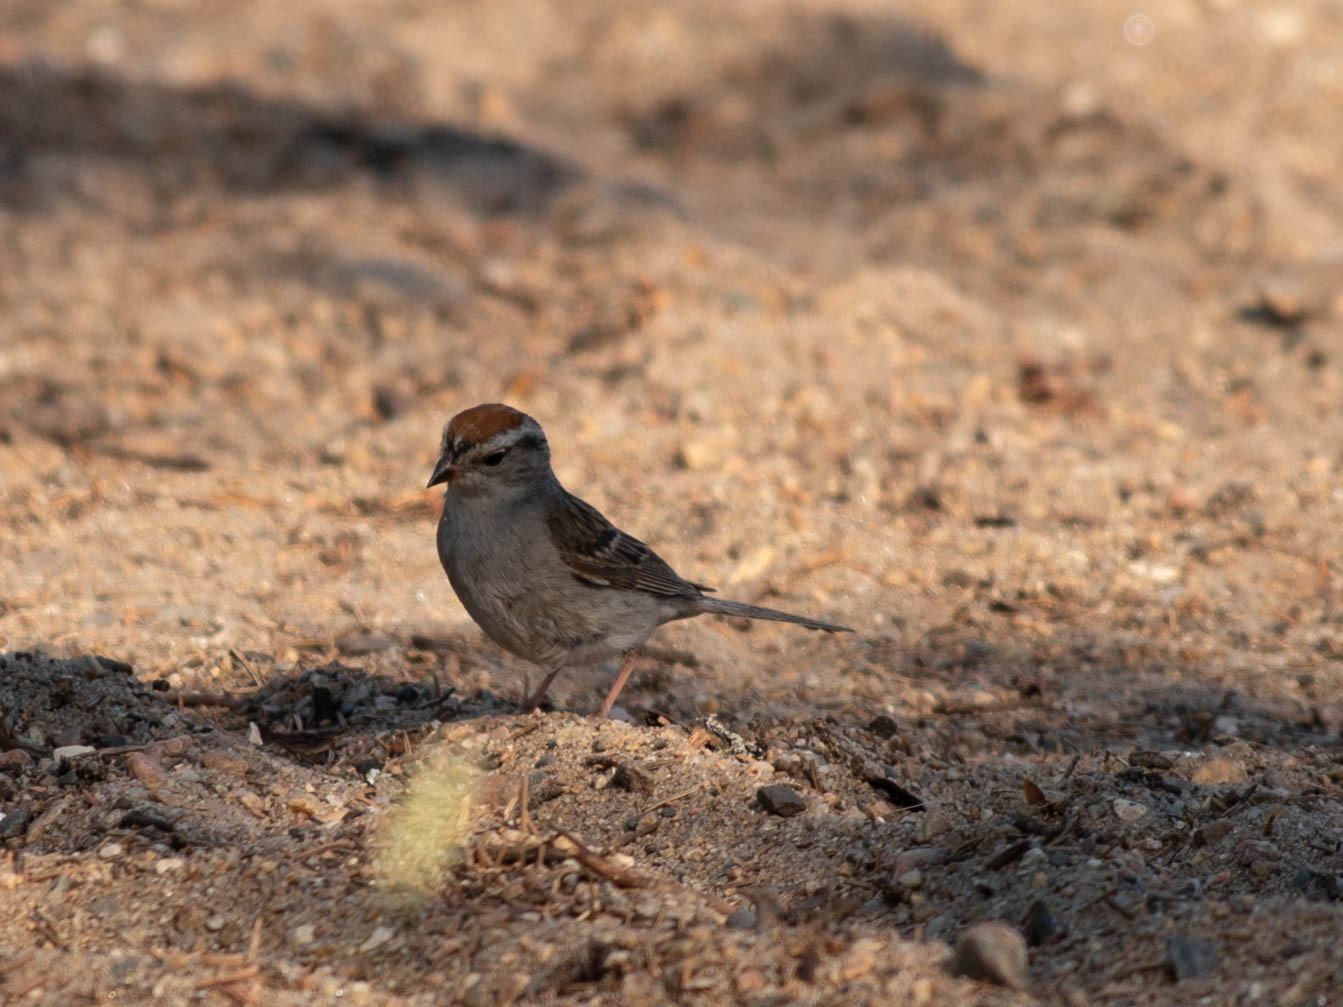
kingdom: Animalia
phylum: Chordata
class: Aves
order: Passeriformes
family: Passerellidae
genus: Spizella
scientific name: Spizella passerina
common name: Chipping sparrow
